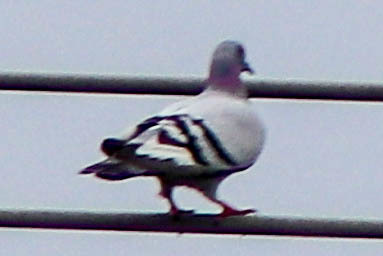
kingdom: Animalia
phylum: Chordata
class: Aves
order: Columbiformes
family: Columbidae
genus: Columba
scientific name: Columba livia
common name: Rock pigeon
